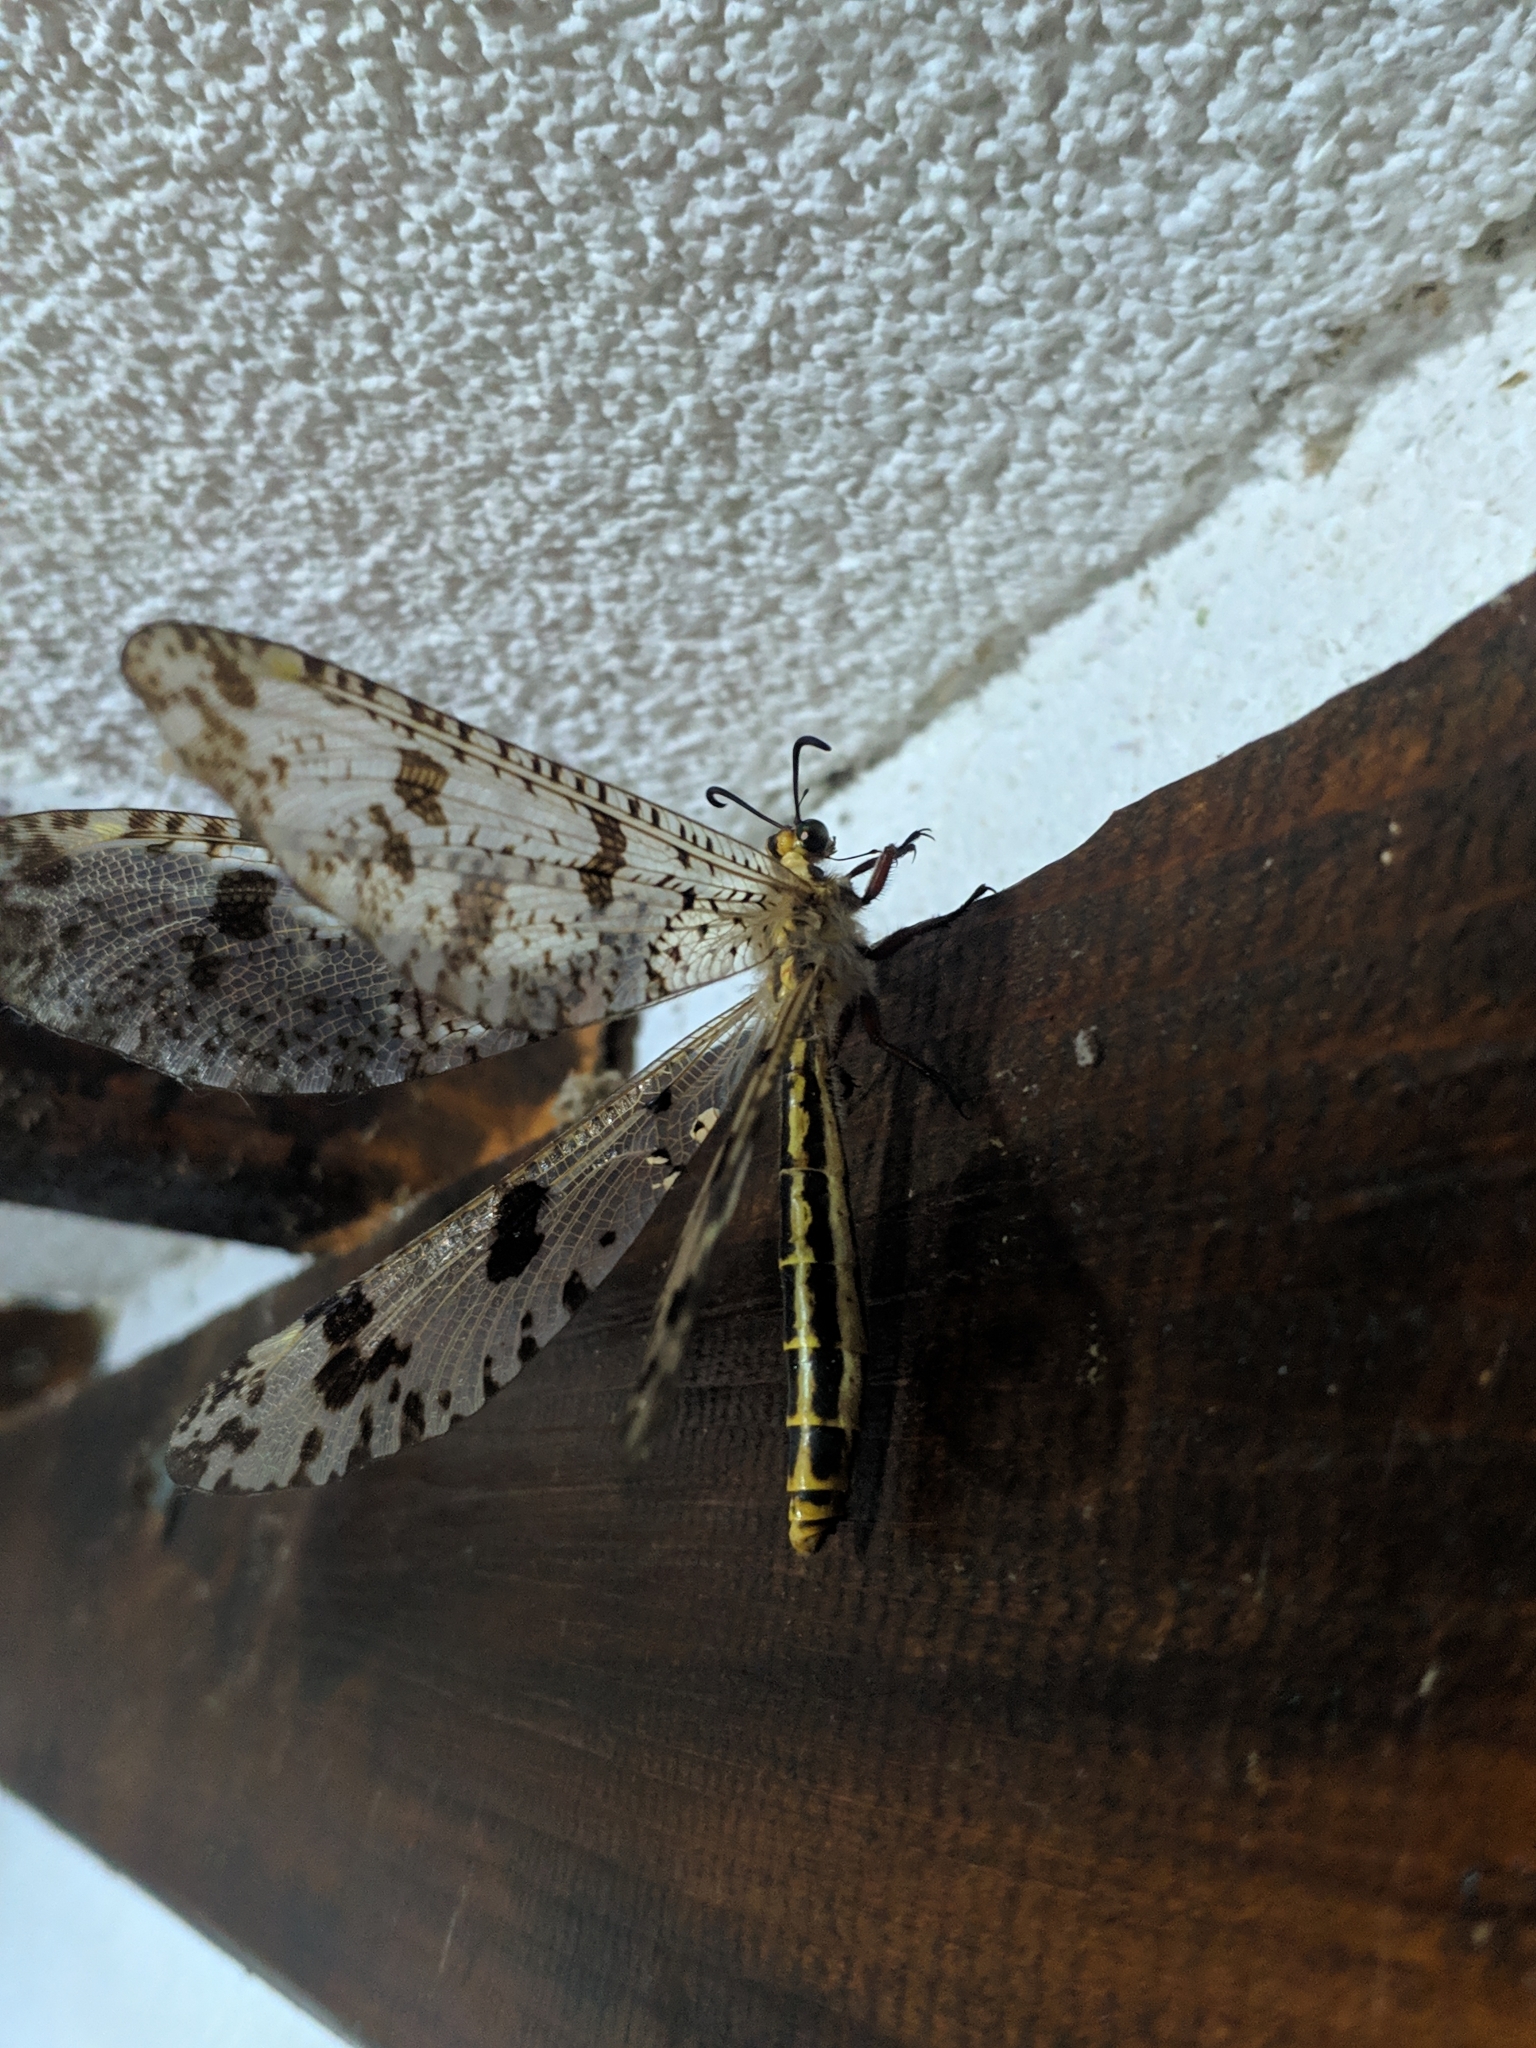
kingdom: Animalia
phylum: Arthropoda
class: Insecta
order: Neuroptera
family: Myrmeleontidae
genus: Palpares
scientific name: Palpares libelluloides
